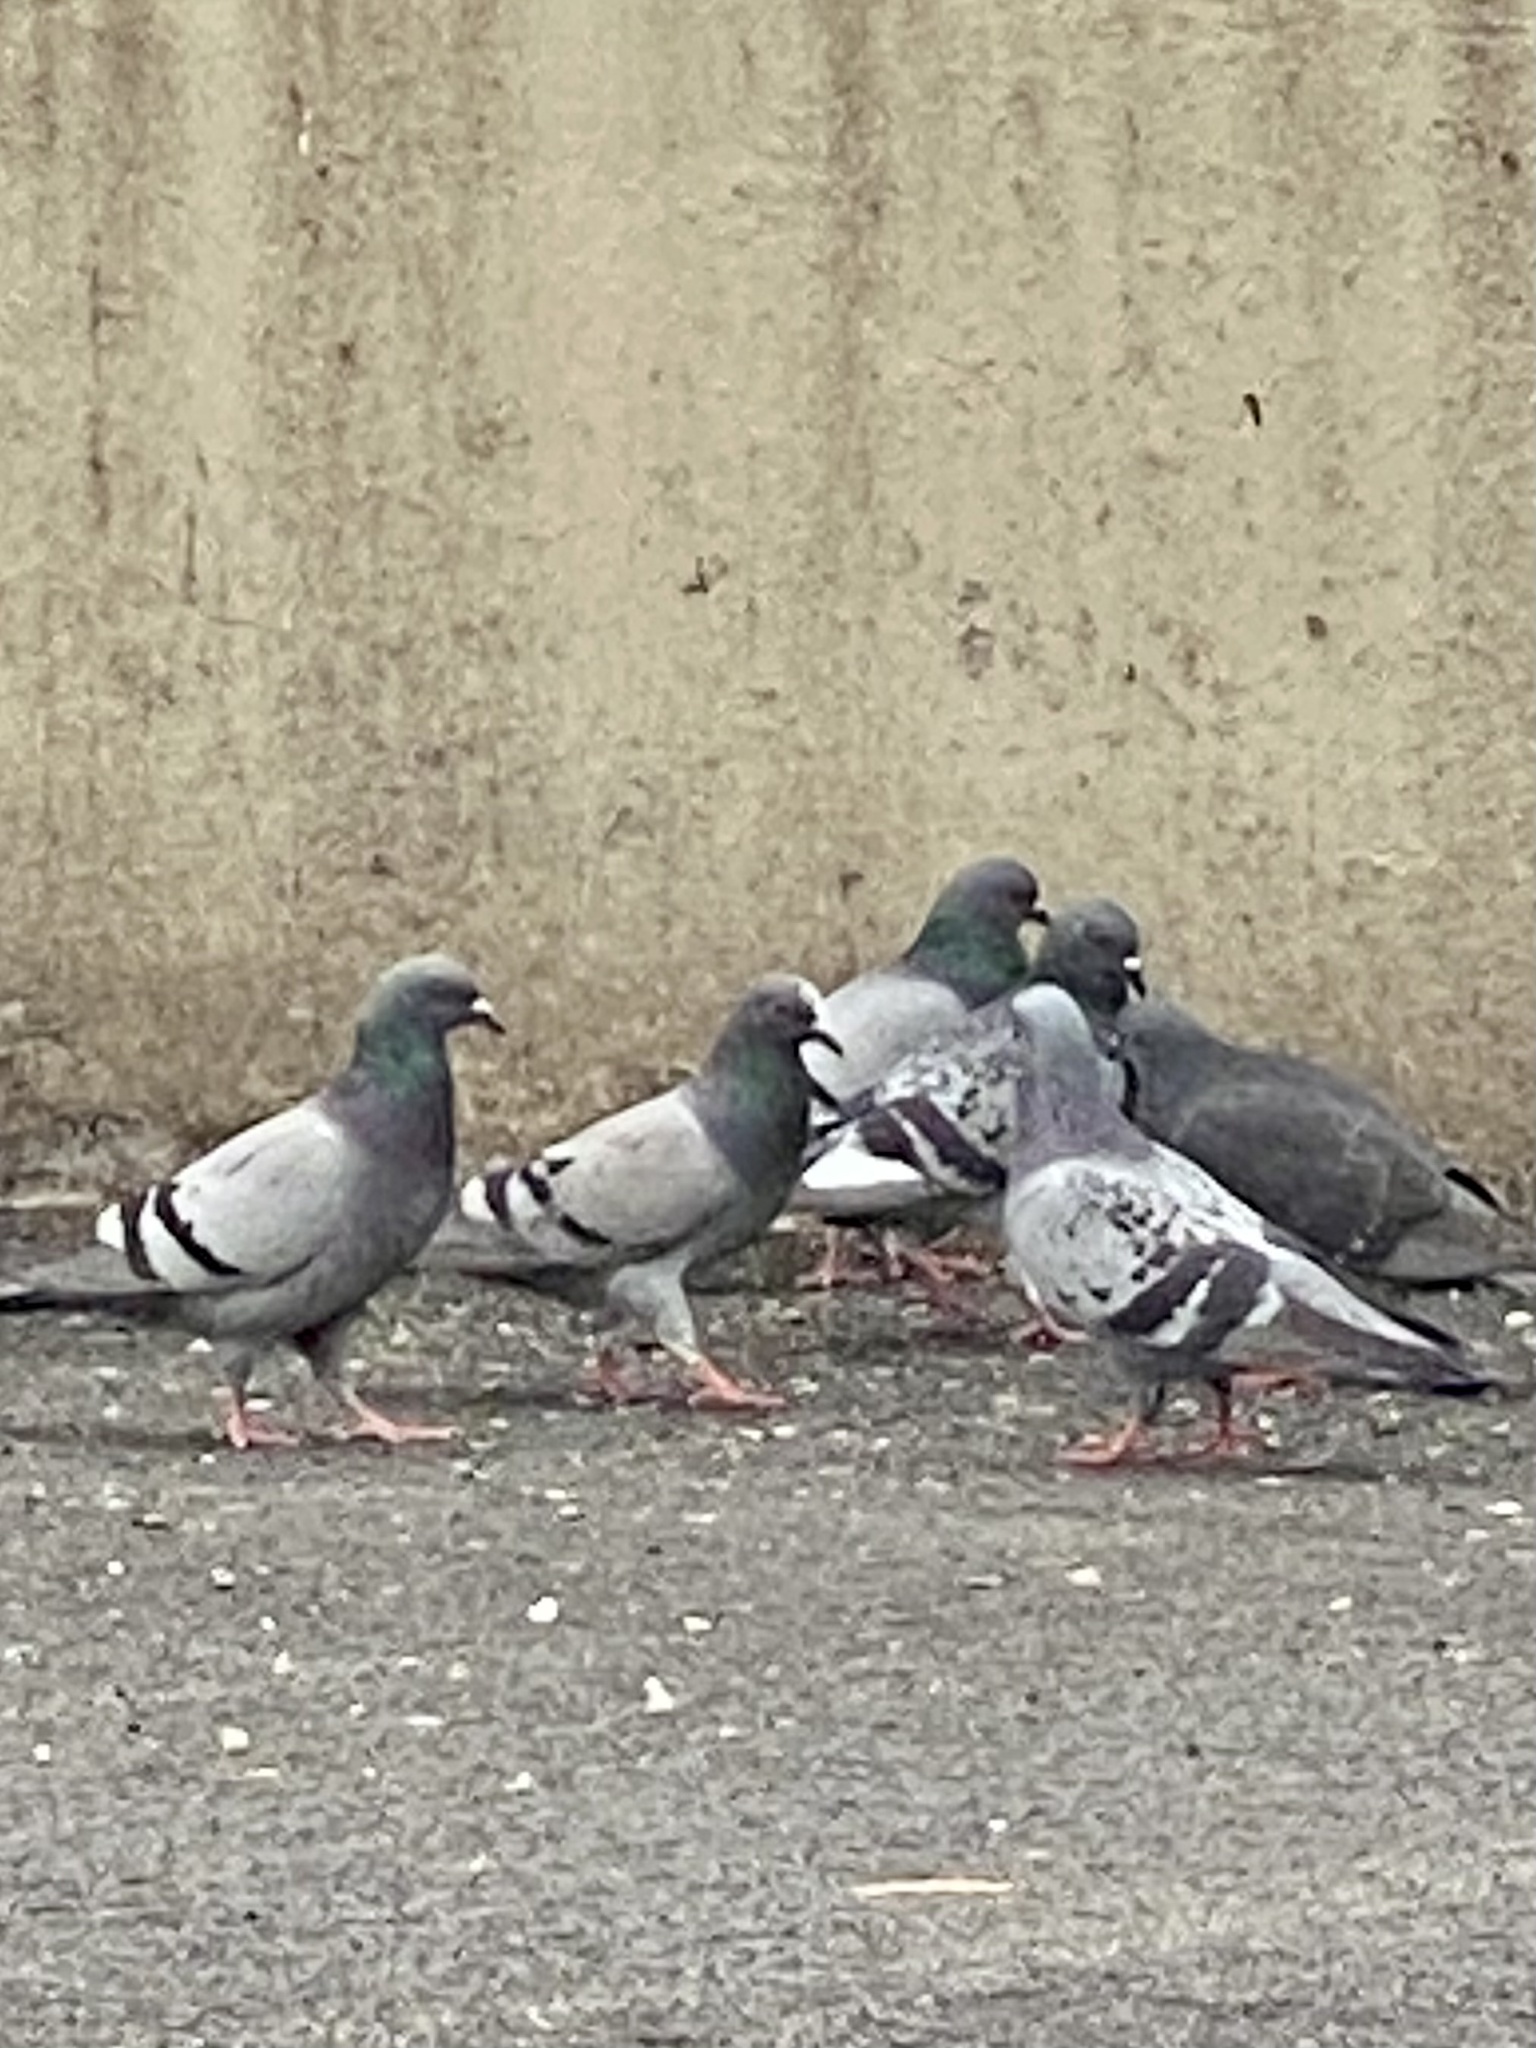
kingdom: Animalia
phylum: Chordata
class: Aves
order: Columbiformes
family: Columbidae
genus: Columba
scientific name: Columba livia
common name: Rock pigeon
